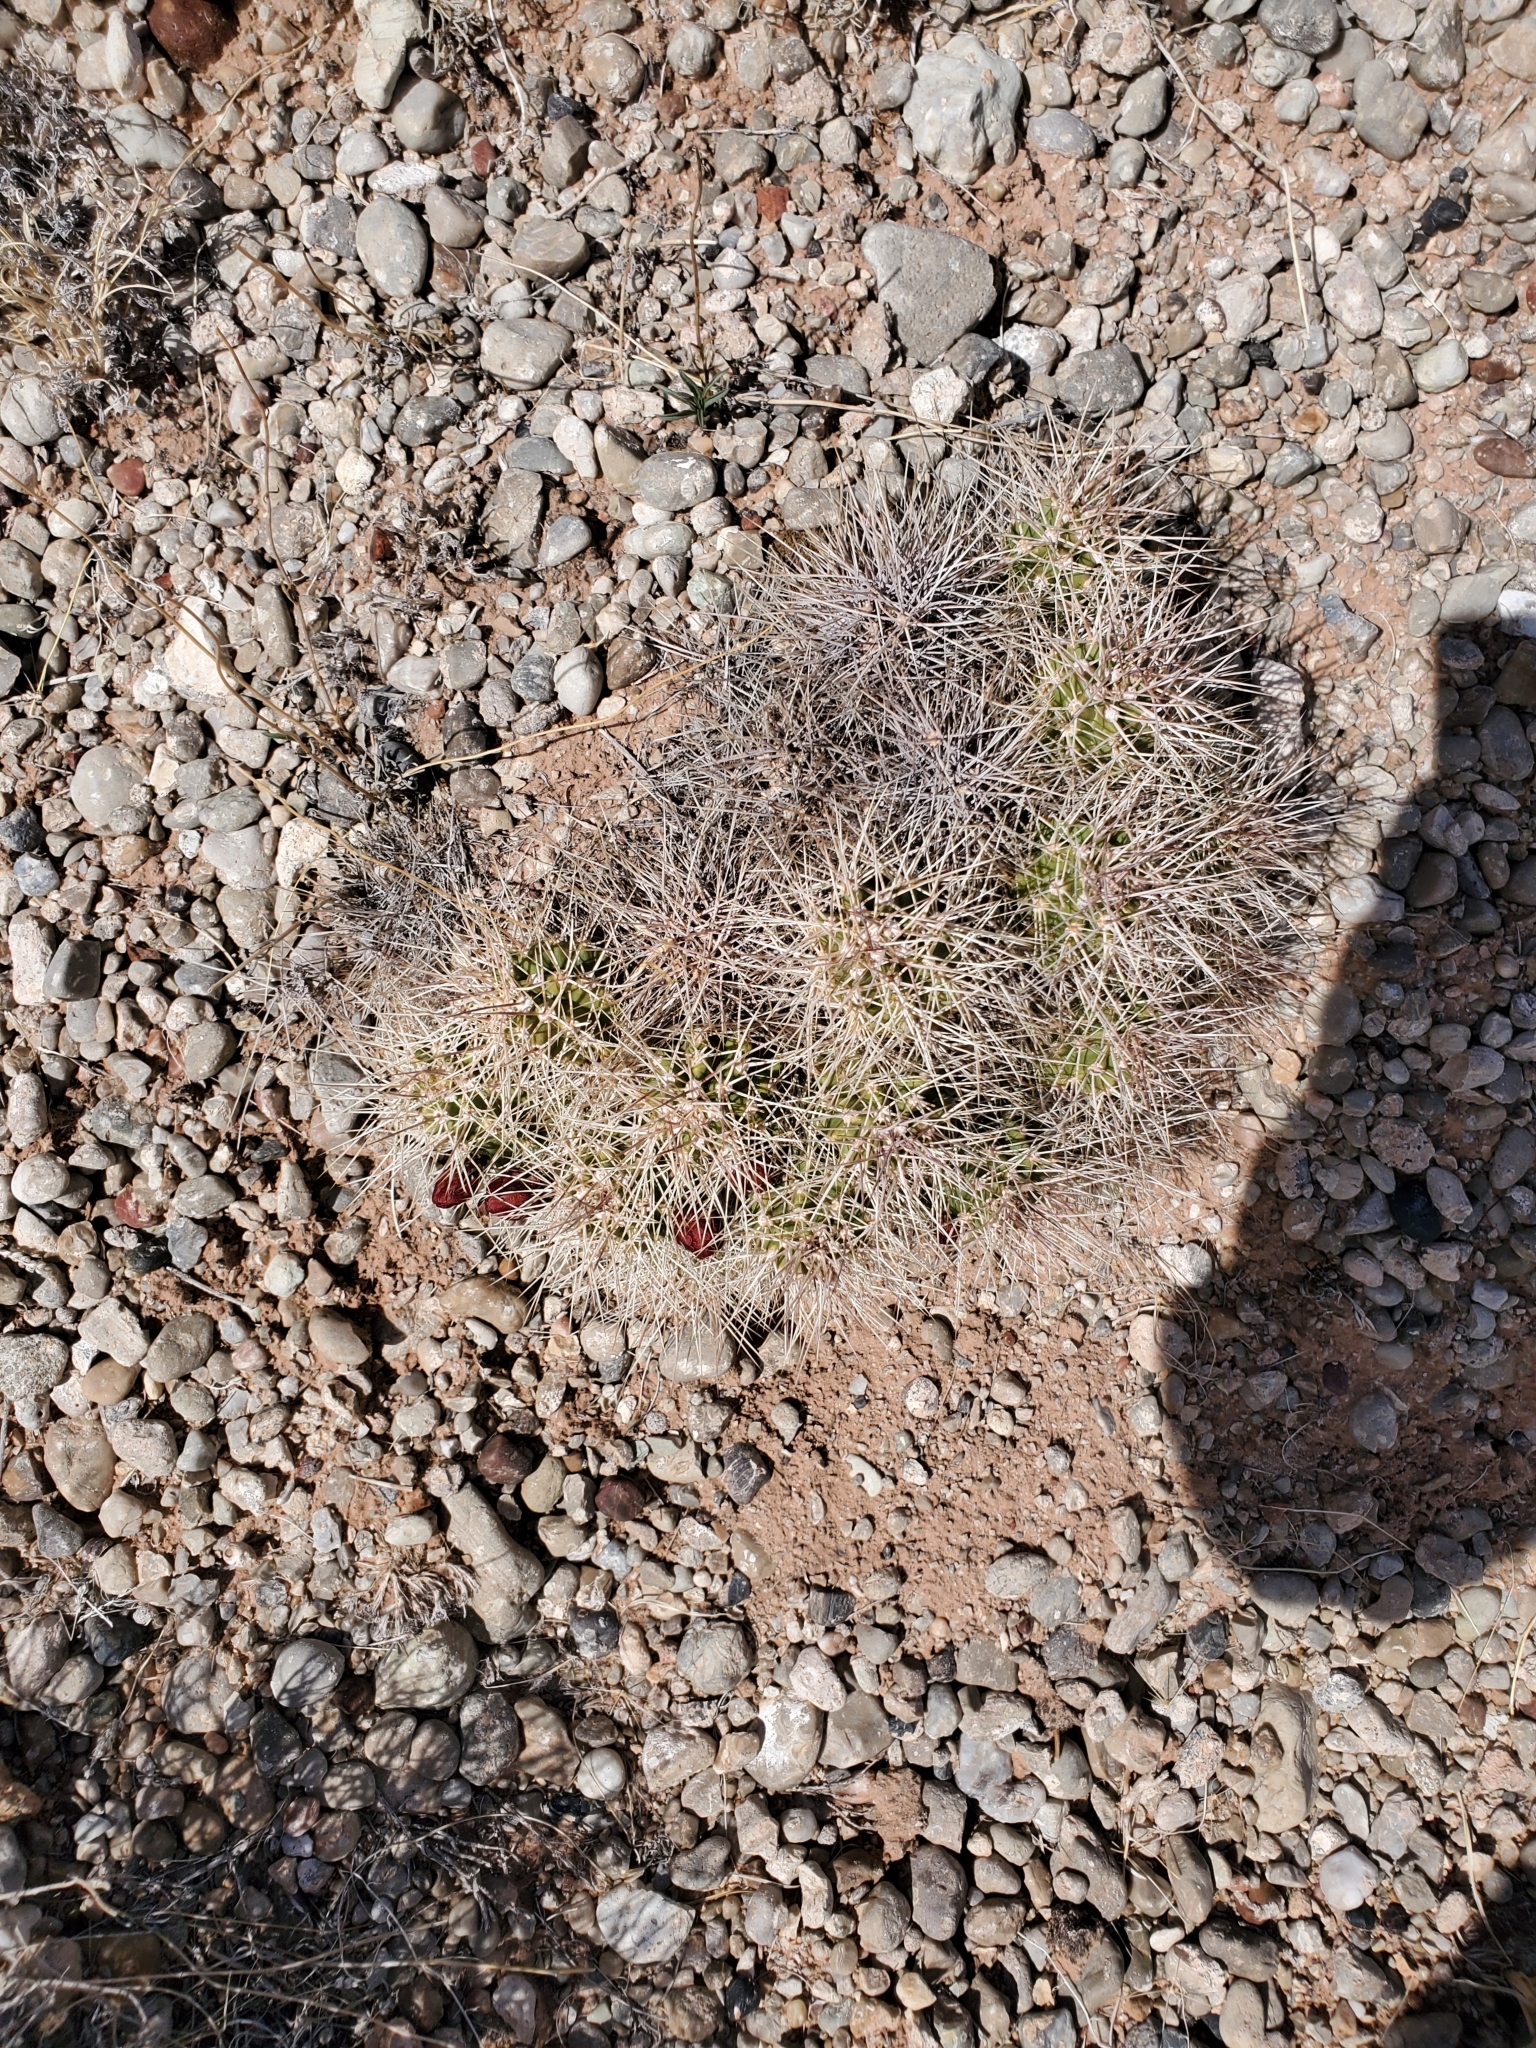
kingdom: Plantae
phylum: Tracheophyta
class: Magnoliopsida
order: Caryophyllales
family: Cactaceae
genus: Echinocereus
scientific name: Echinocereus triglochidiatus
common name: Claretcup hedgehog
